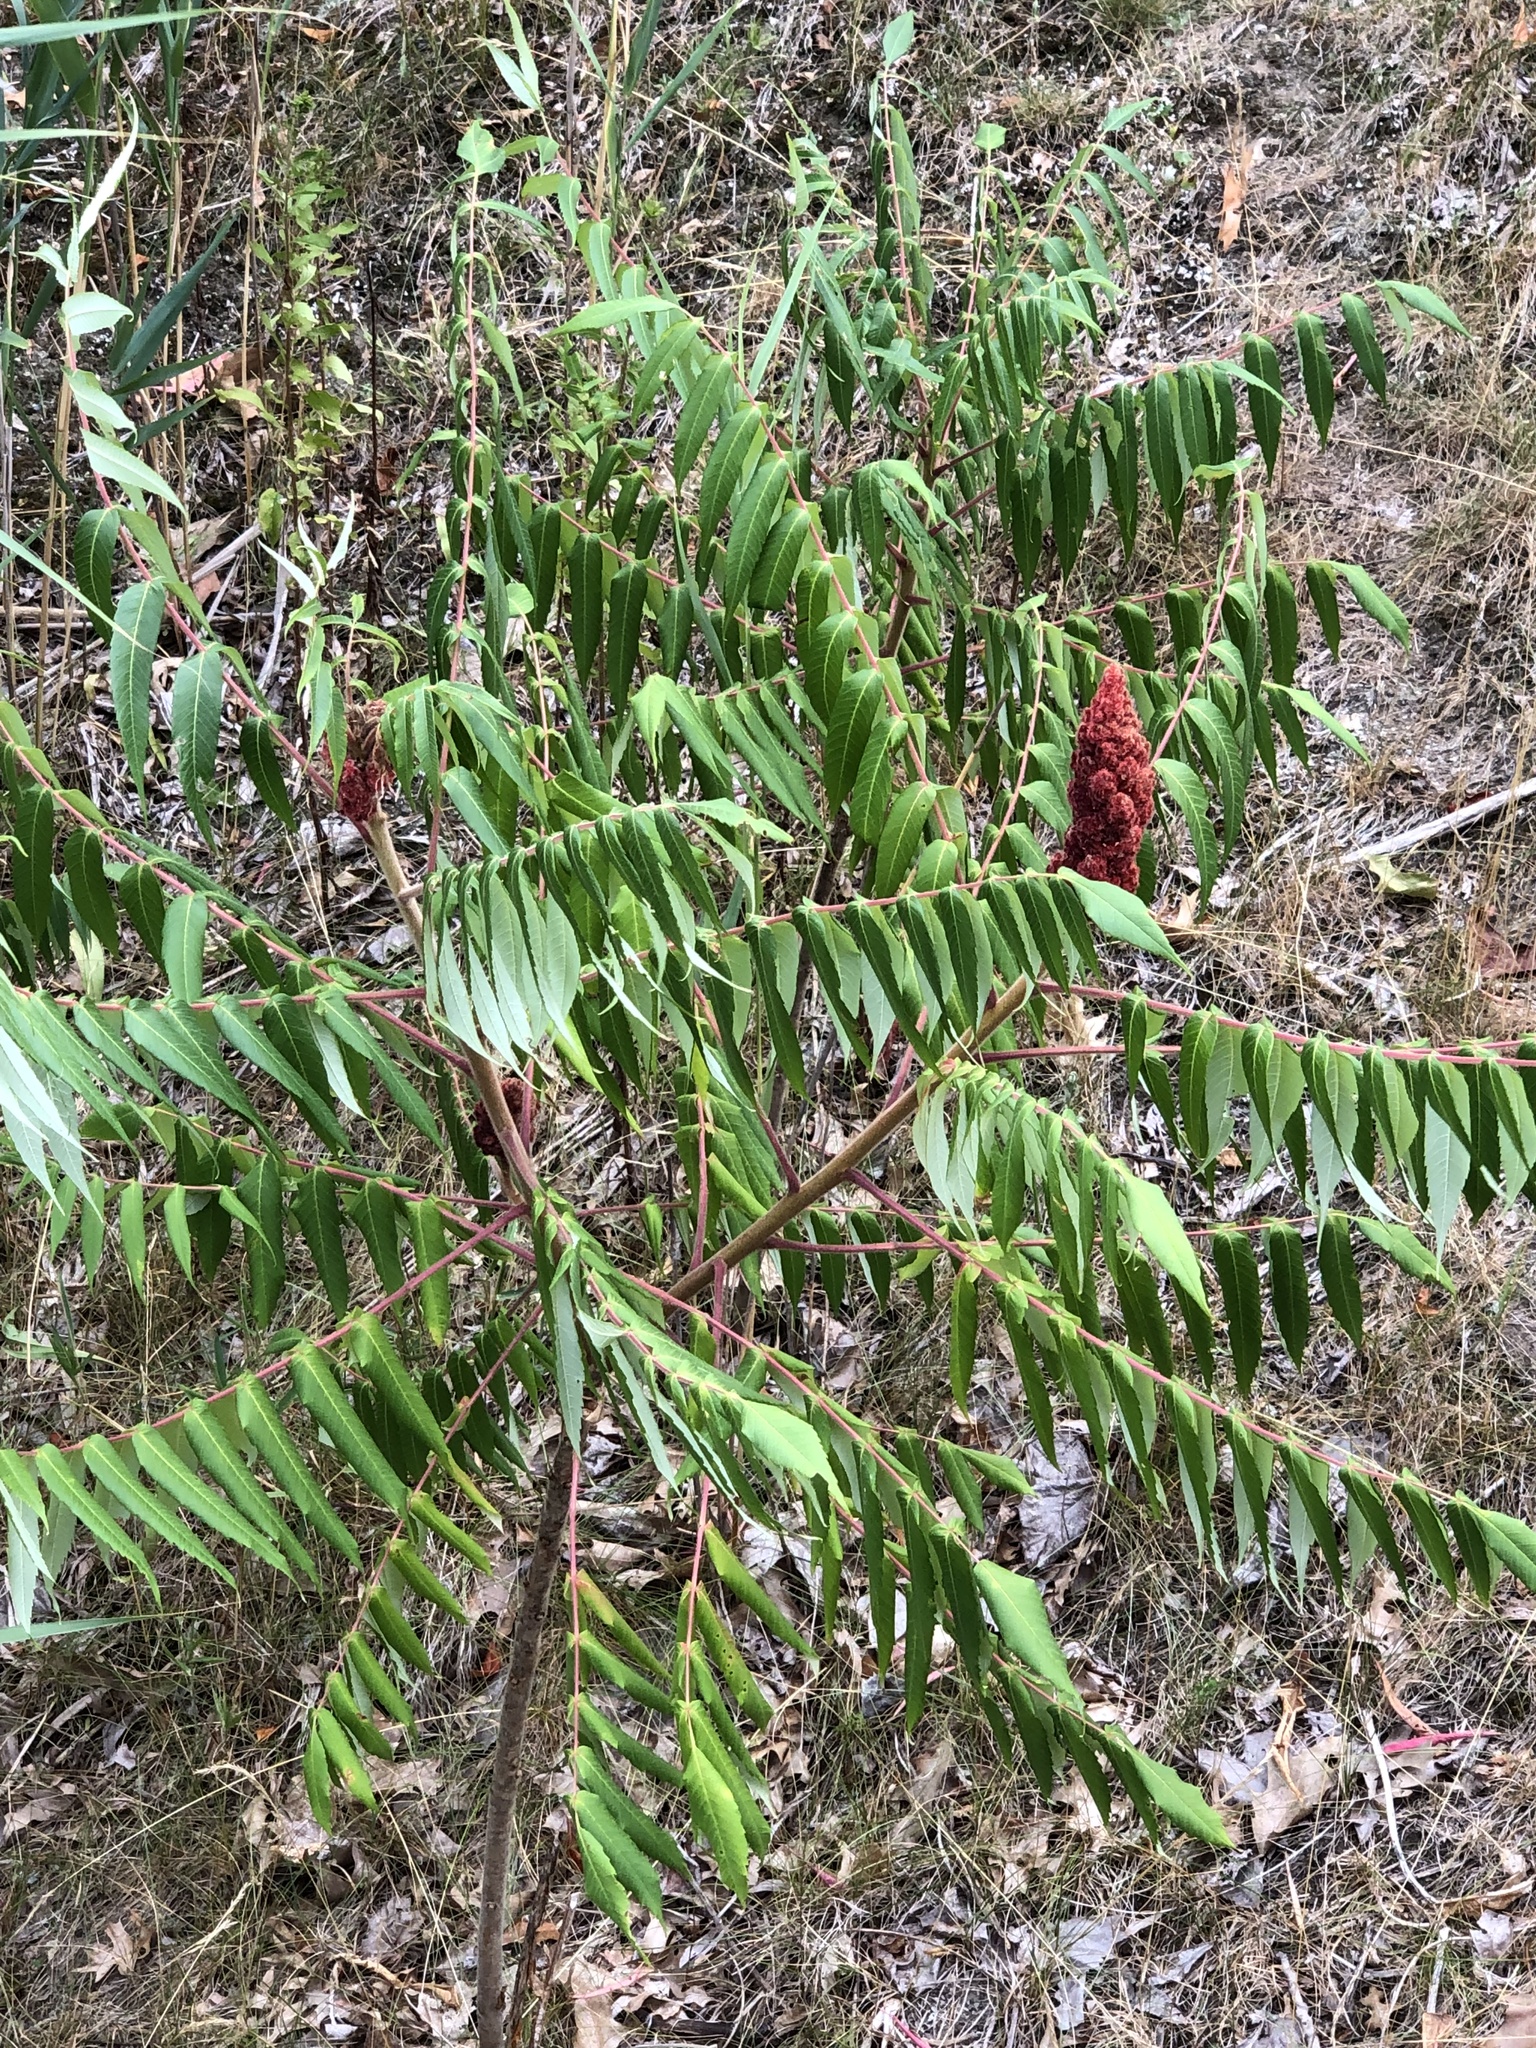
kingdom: Plantae
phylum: Tracheophyta
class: Magnoliopsida
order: Sapindales
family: Anacardiaceae
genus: Rhus
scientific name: Rhus typhina
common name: Staghorn sumac
